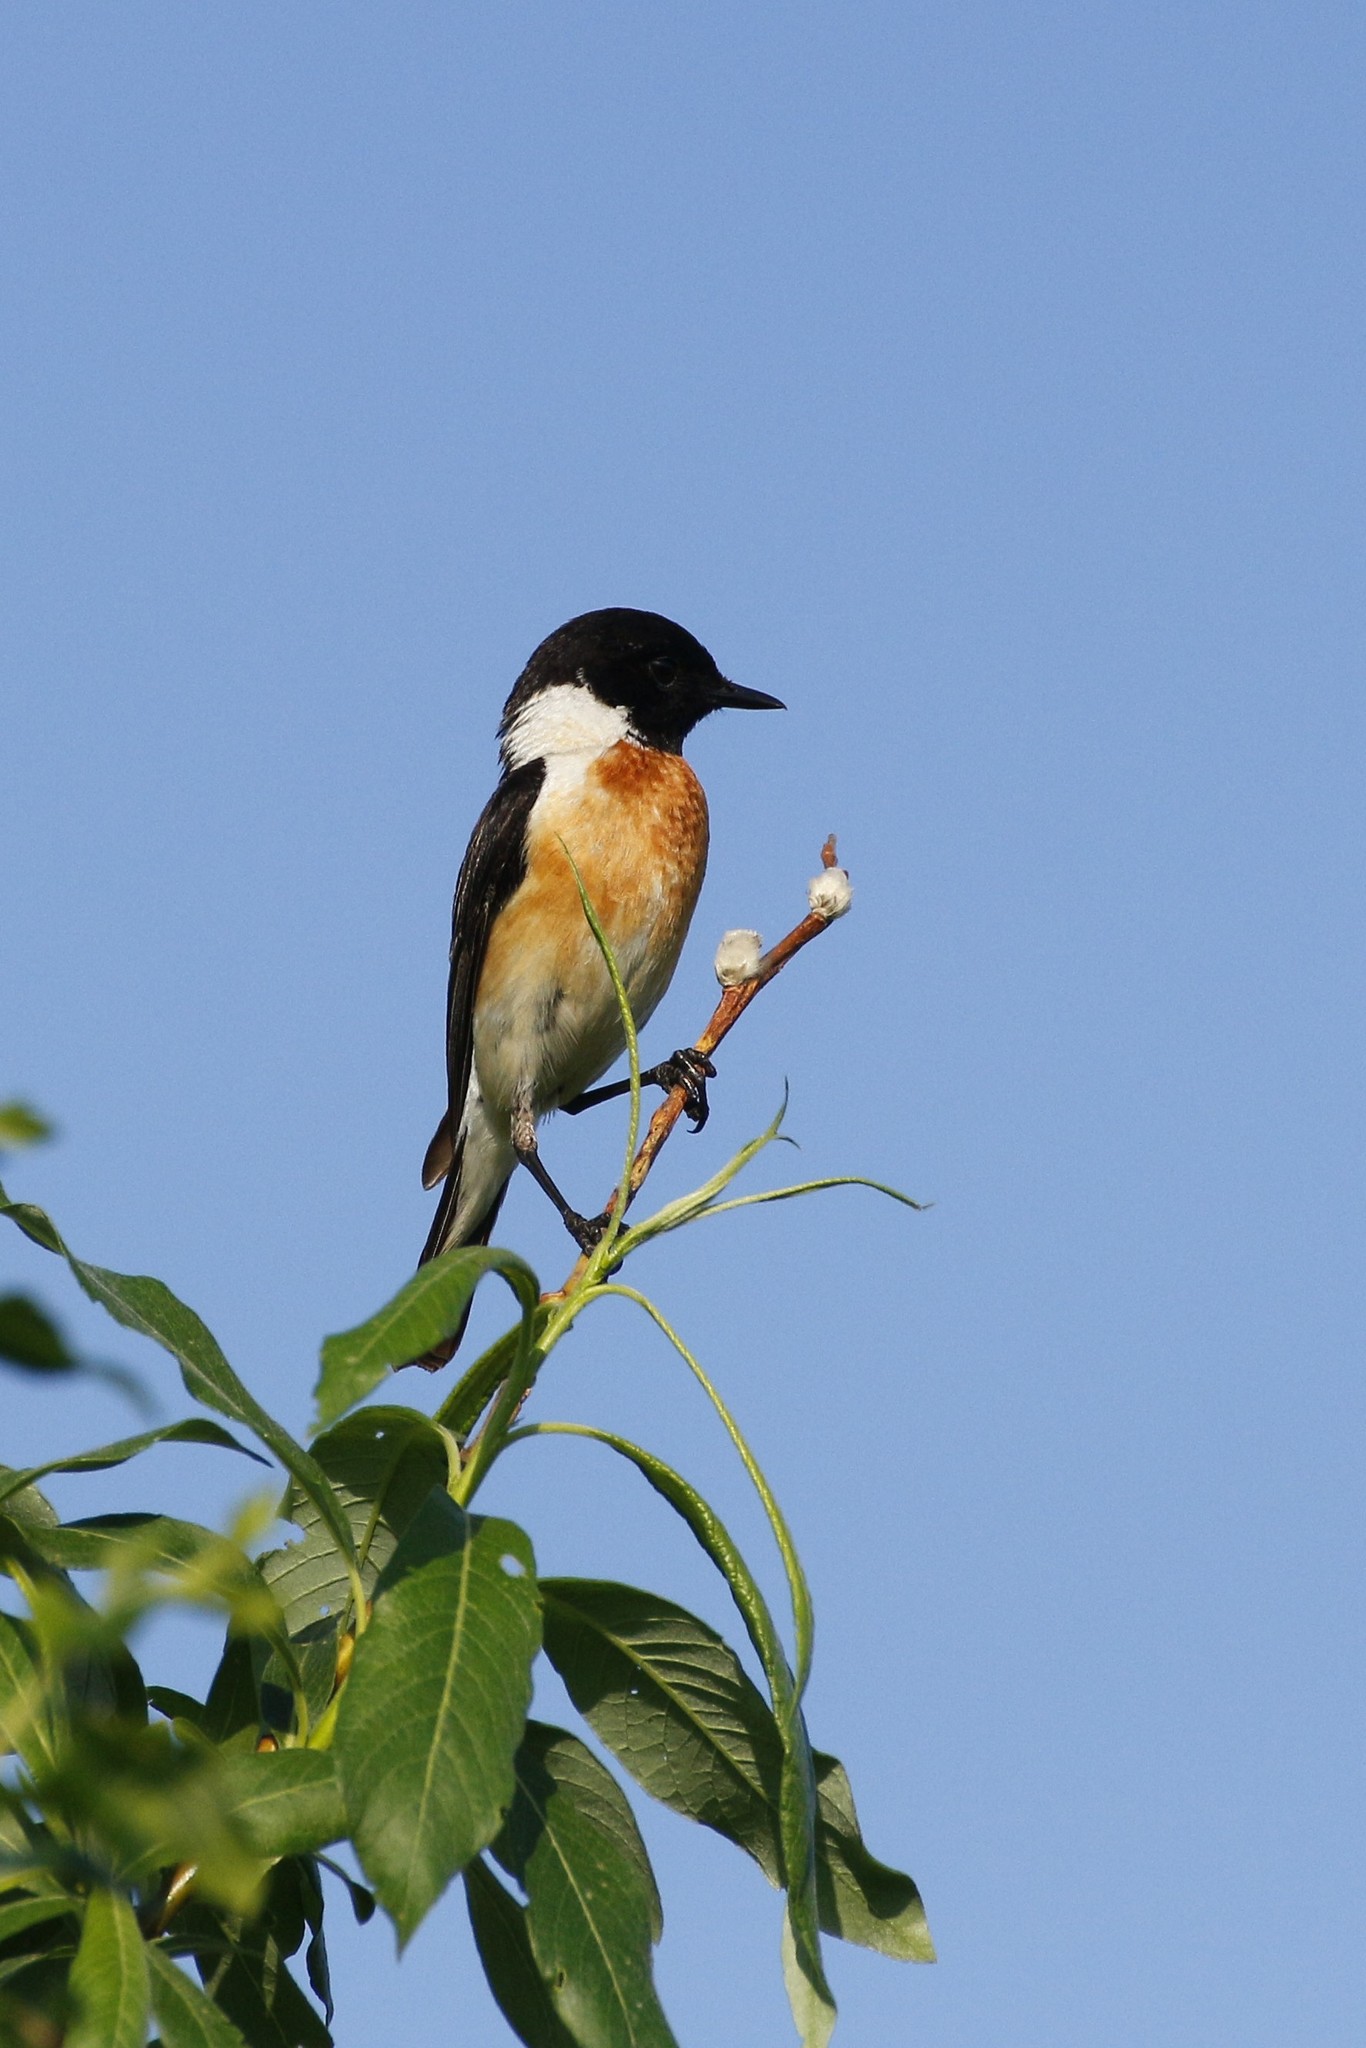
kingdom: Animalia
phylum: Chordata
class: Aves
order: Passeriformes
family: Muscicapidae
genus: Saxicola
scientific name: Saxicola maurus
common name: Siberian stonechat
